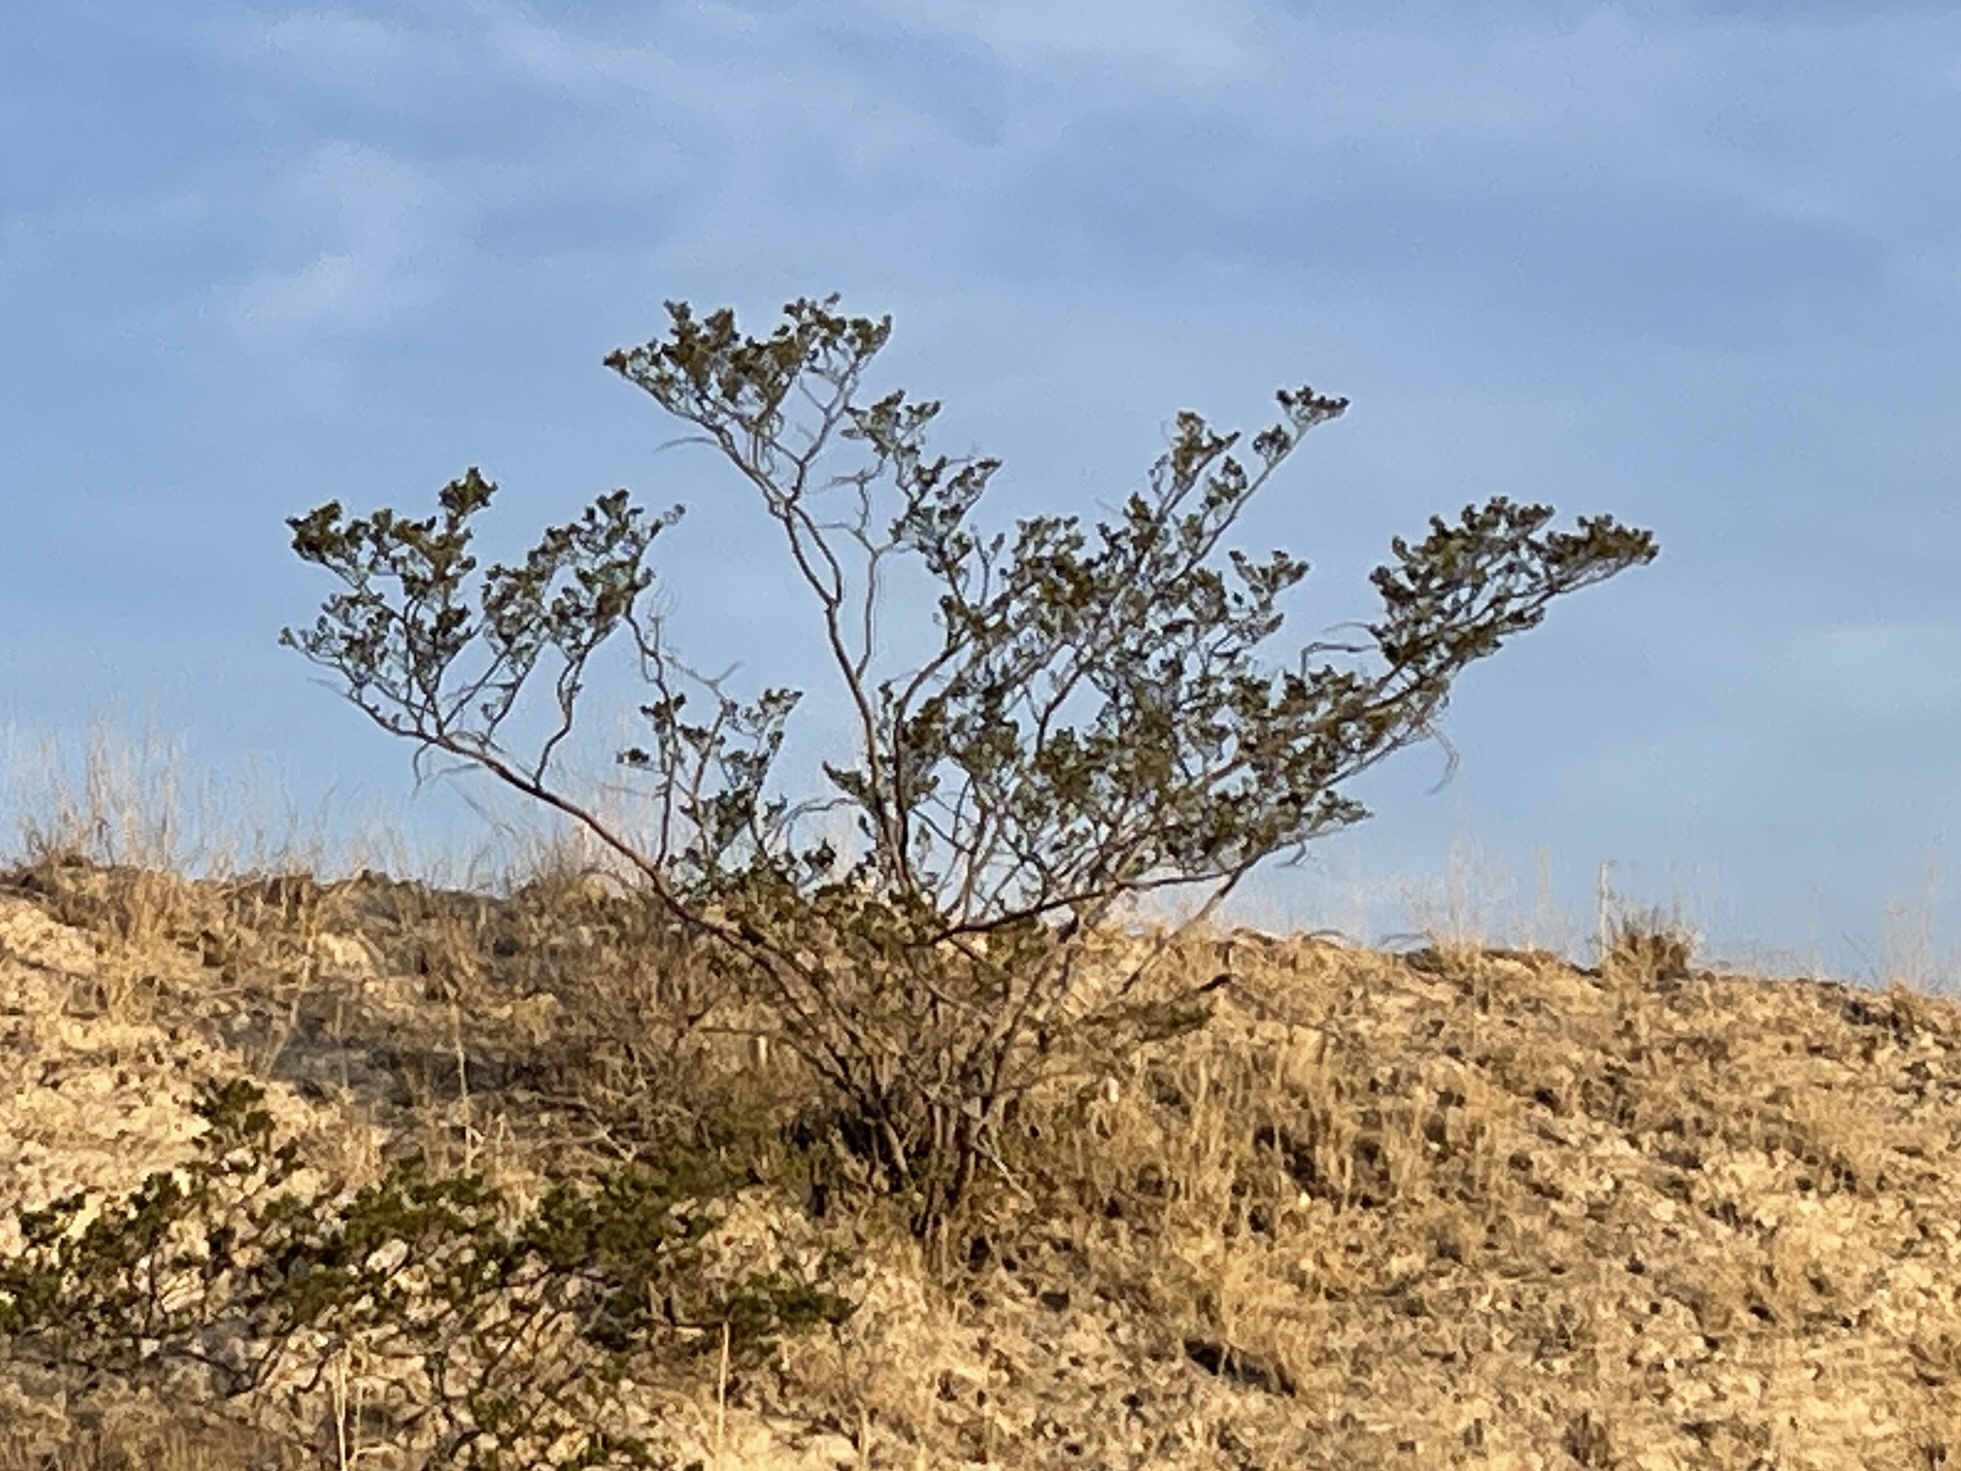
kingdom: Plantae
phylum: Tracheophyta
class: Magnoliopsida
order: Zygophyllales
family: Zygophyllaceae
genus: Larrea
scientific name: Larrea tridentata
